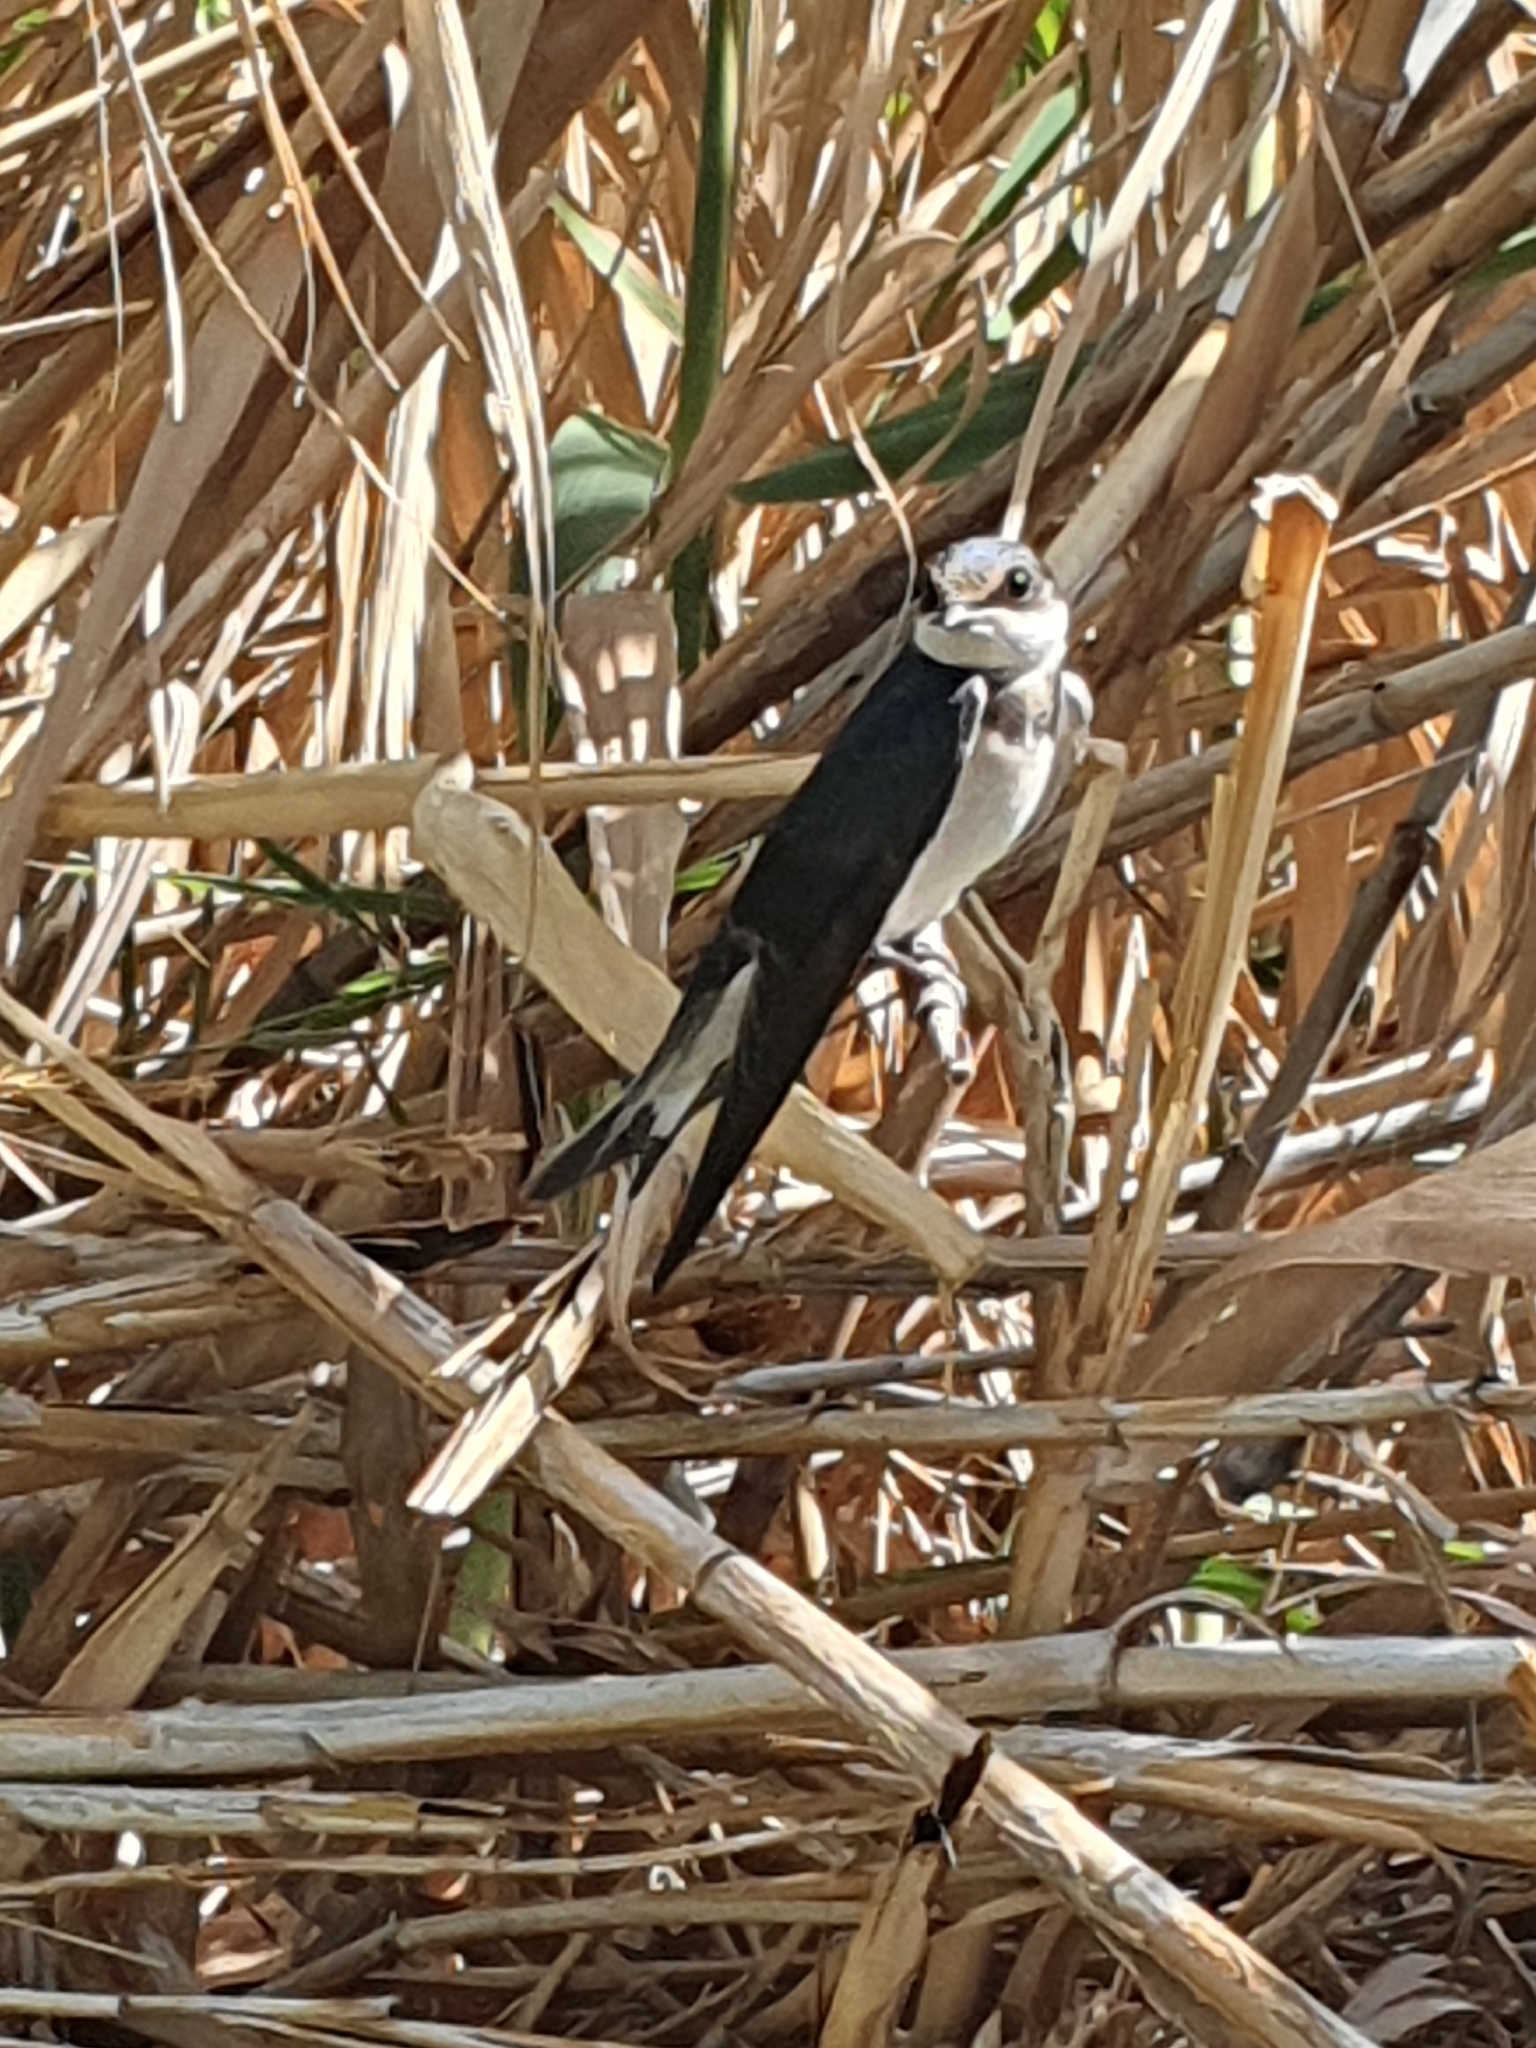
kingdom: Animalia
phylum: Chordata
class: Aves
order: Passeriformes
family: Hirundinidae
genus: Hirundo
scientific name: Hirundo albigularis
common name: White-throated swallow
